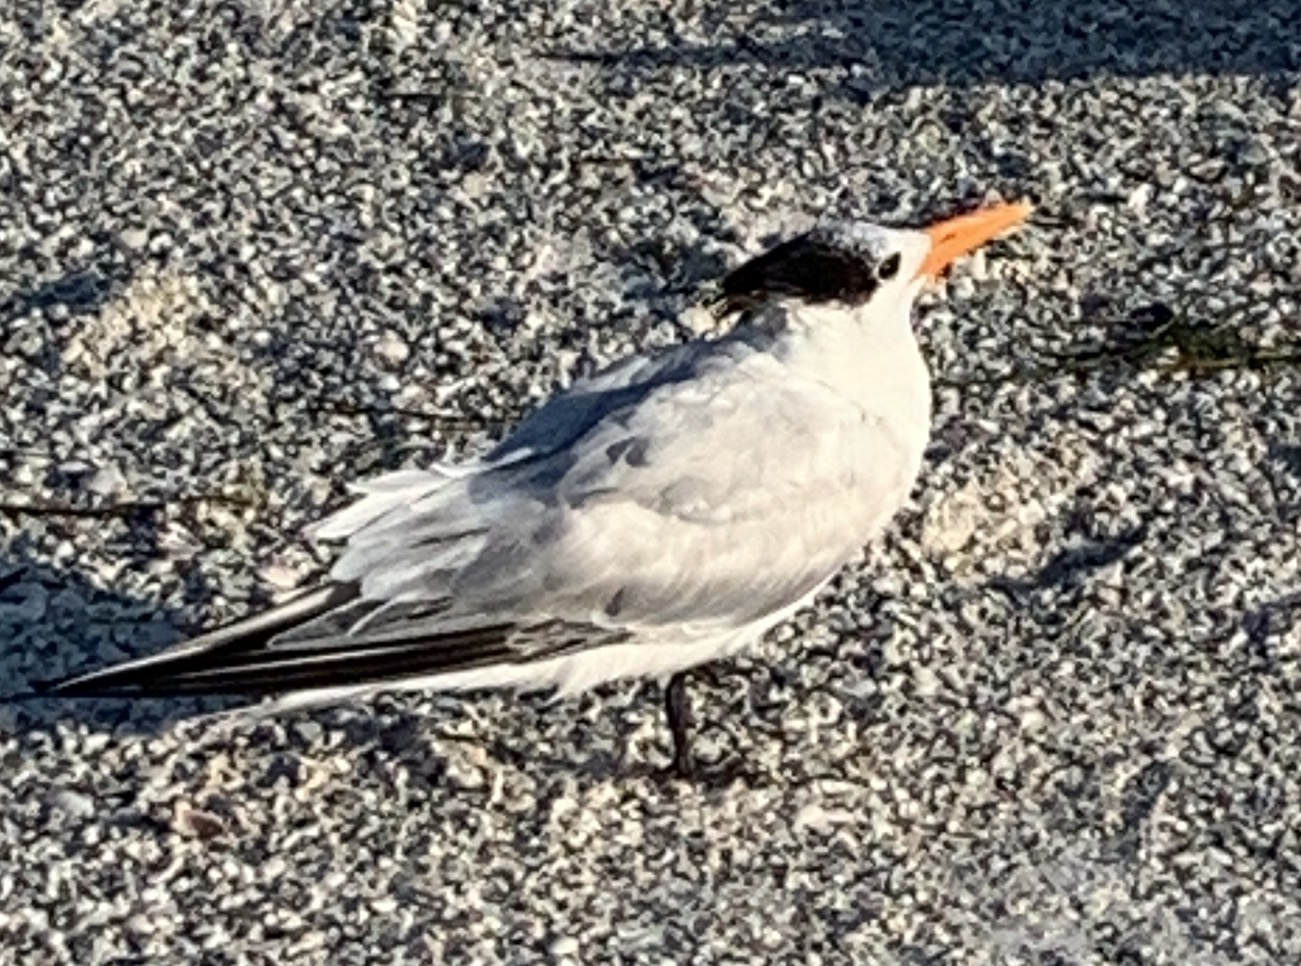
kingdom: Animalia
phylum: Chordata
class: Aves
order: Charadriiformes
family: Laridae
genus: Thalasseus
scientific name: Thalasseus maximus
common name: Royal tern
